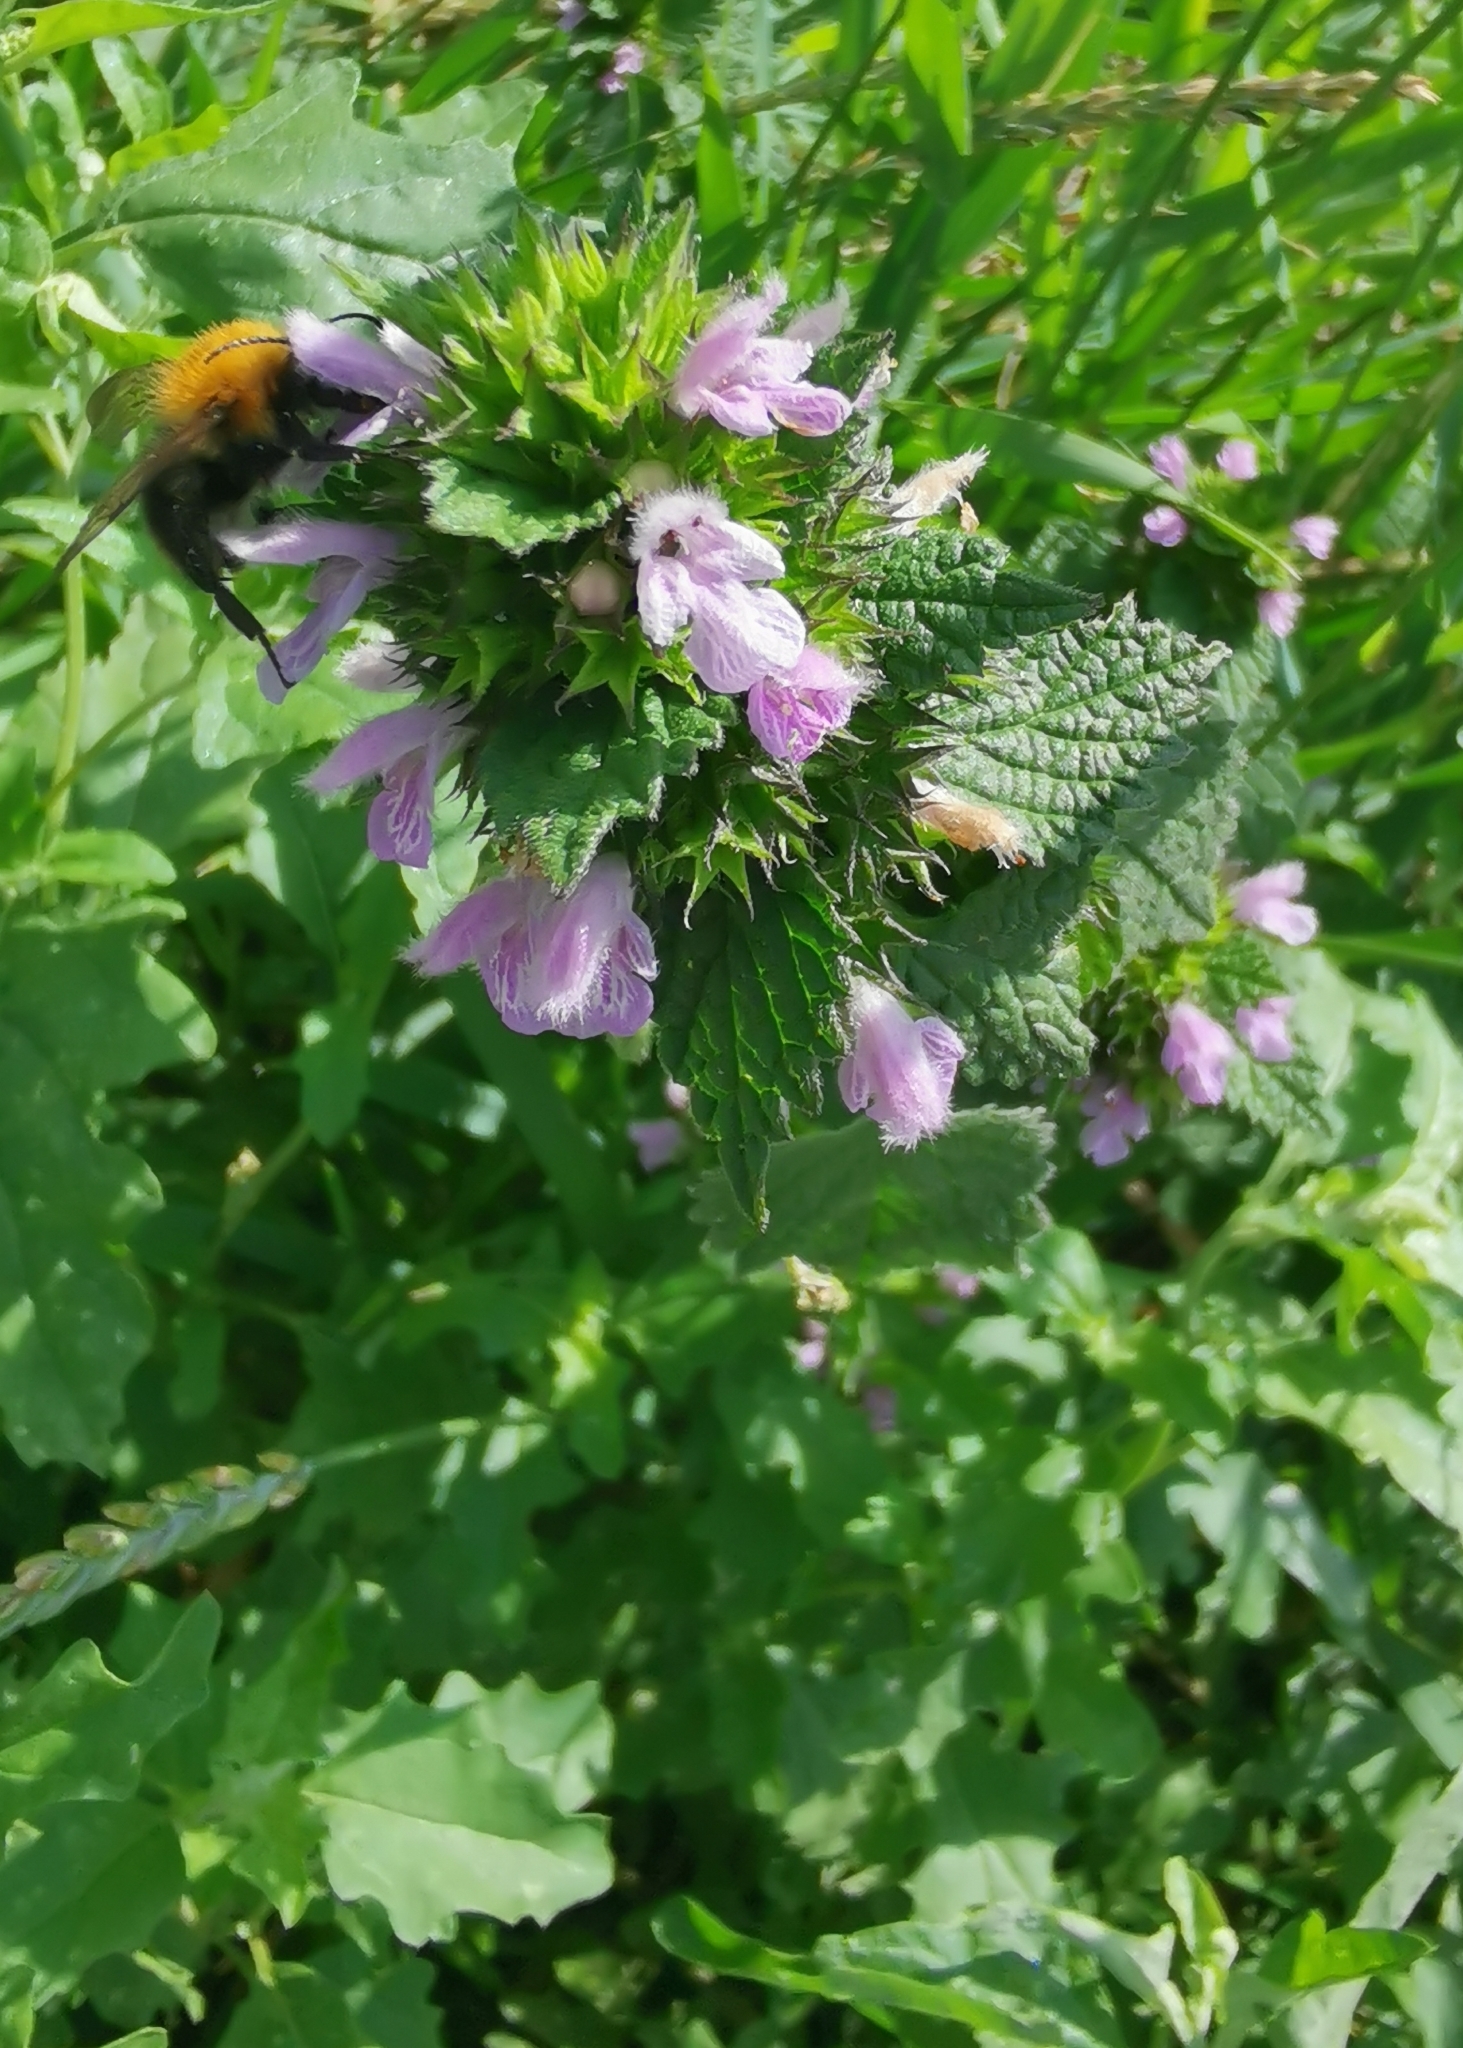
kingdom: Plantae
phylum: Tracheophyta
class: Magnoliopsida
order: Lamiales
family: Lamiaceae
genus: Ballota
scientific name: Ballota nigra
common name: Black horehound
